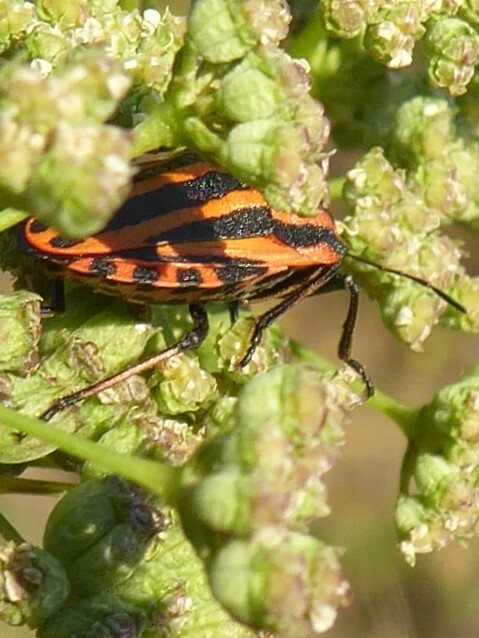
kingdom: Animalia
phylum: Arthropoda
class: Insecta
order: Hemiptera
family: Pentatomidae
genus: Graphosoma
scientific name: Graphosoma italicum
